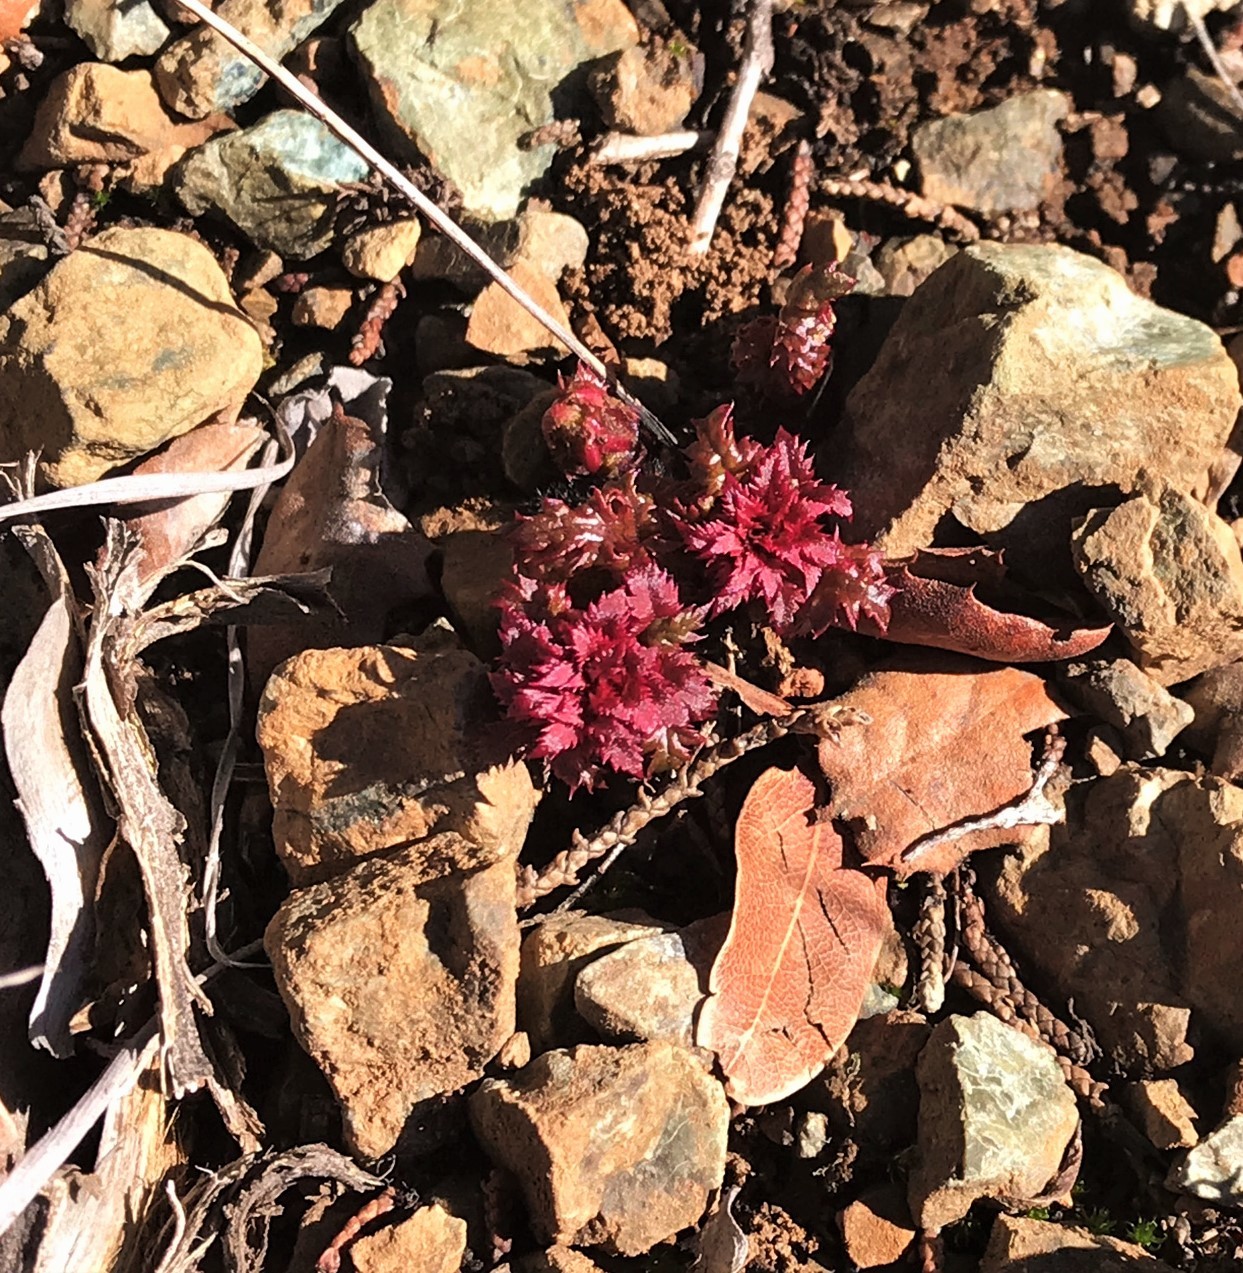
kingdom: Plantae
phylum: Tracheophyta
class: Magnoliopsida
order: Lamiales
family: Orobanchaceae
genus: Pedicularis
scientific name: Pedicularis densiflora
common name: Indian warrior
